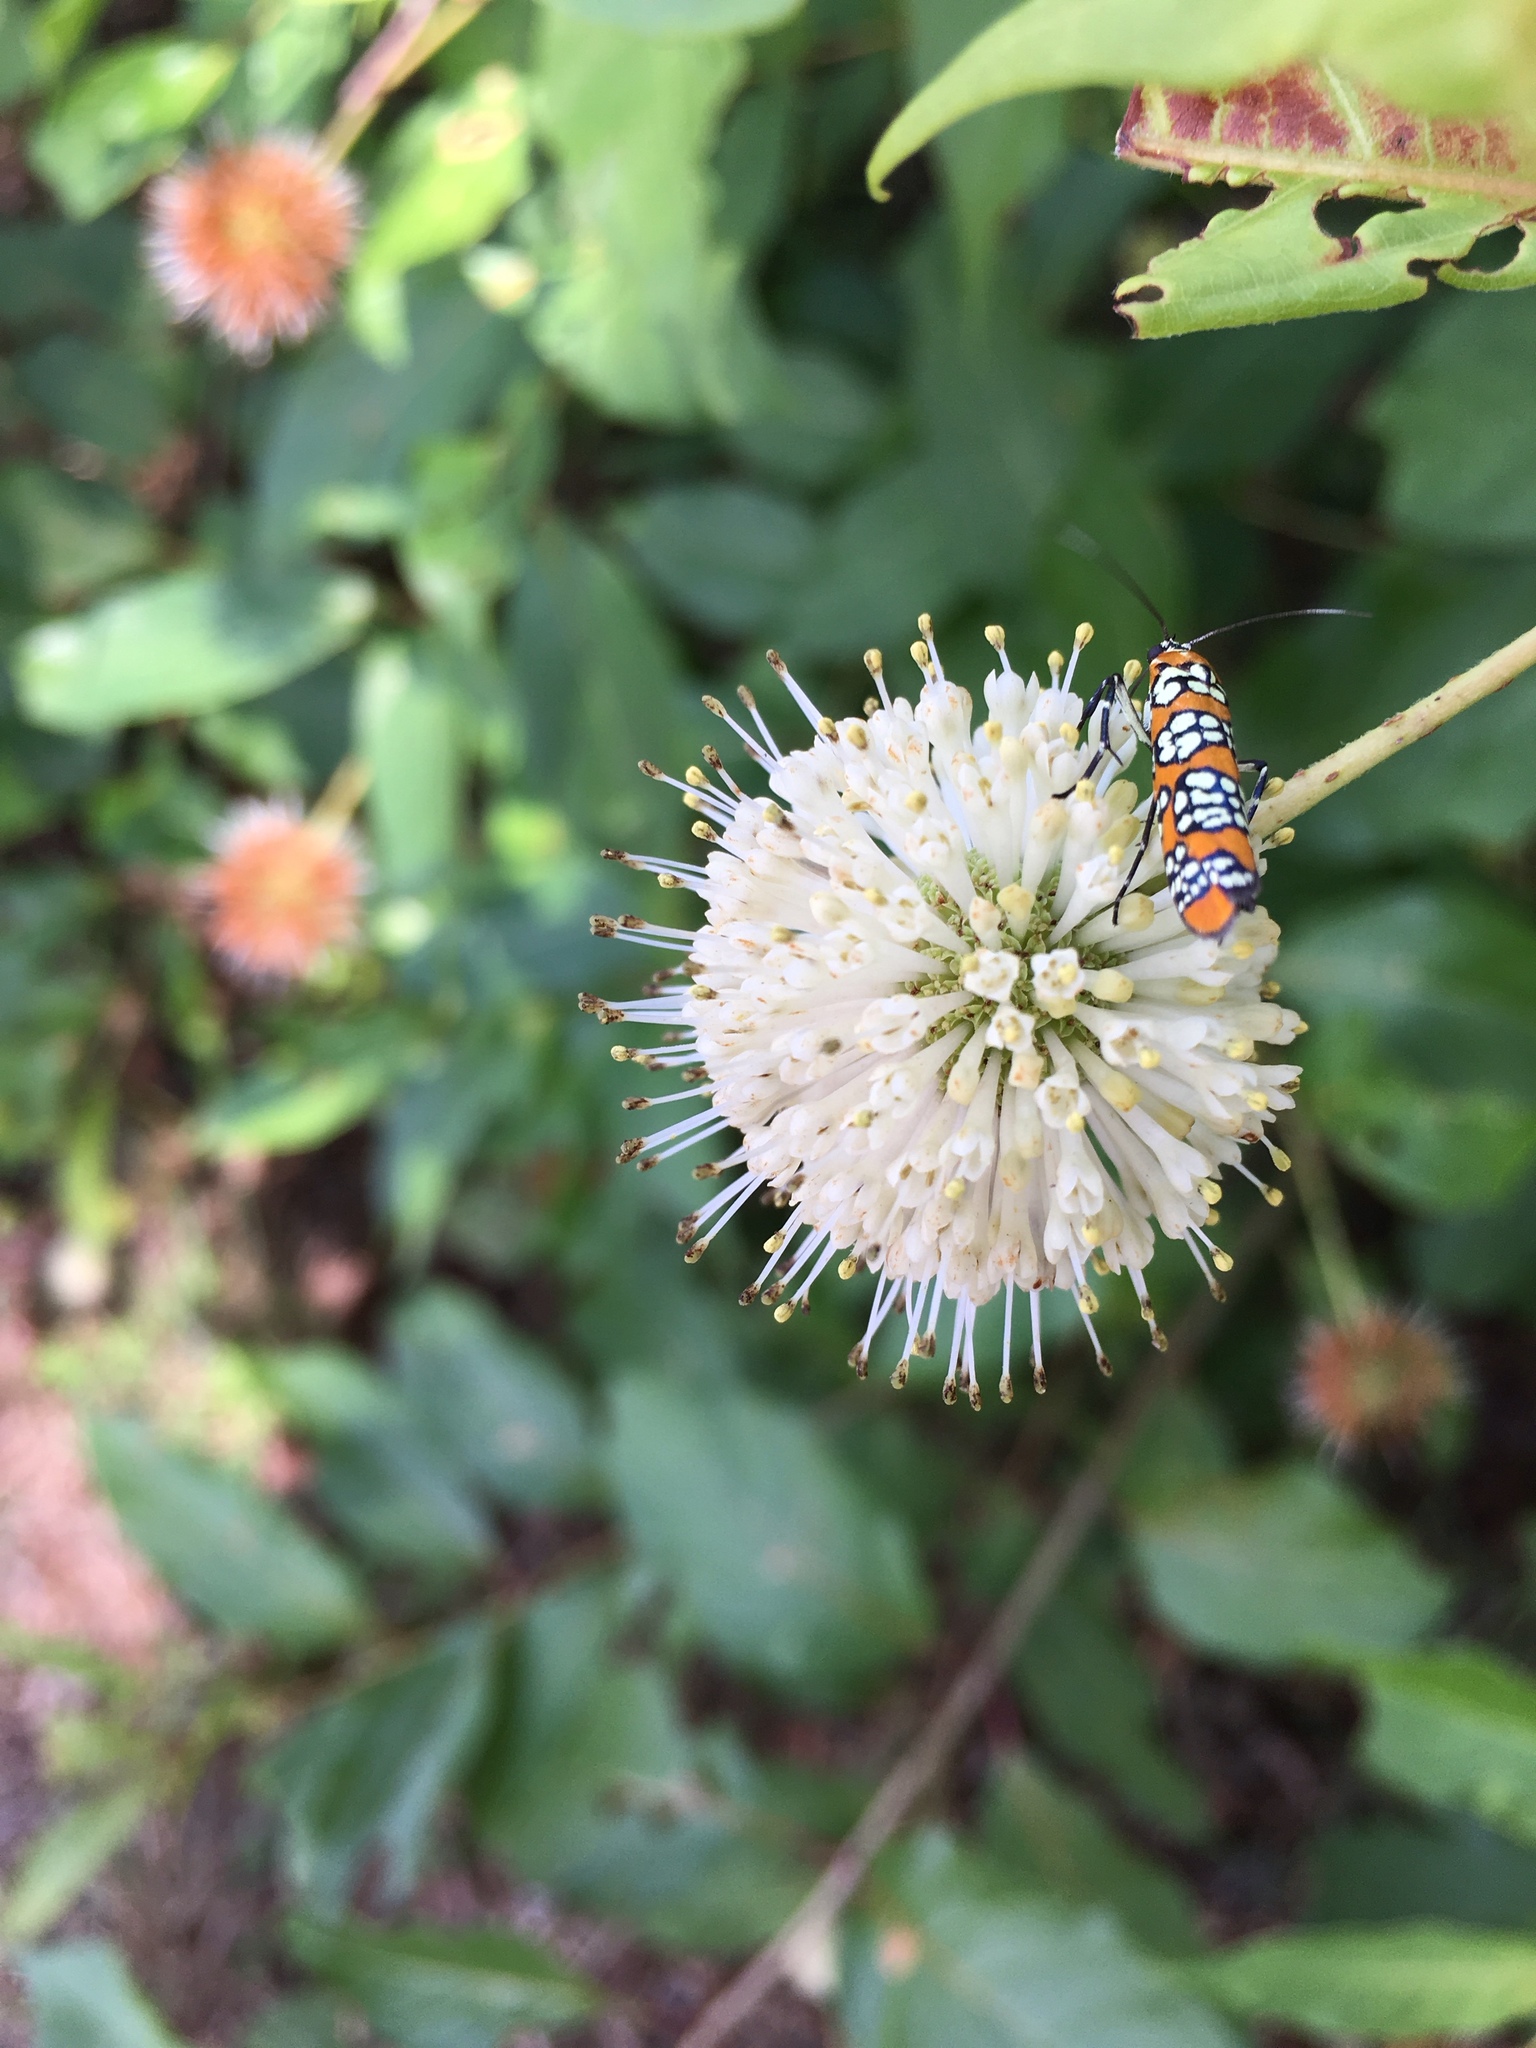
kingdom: Animalia
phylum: Arthropoda
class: Insecta
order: Lepidoptera
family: Attevidae
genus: Atteva
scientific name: Atteva punctella
